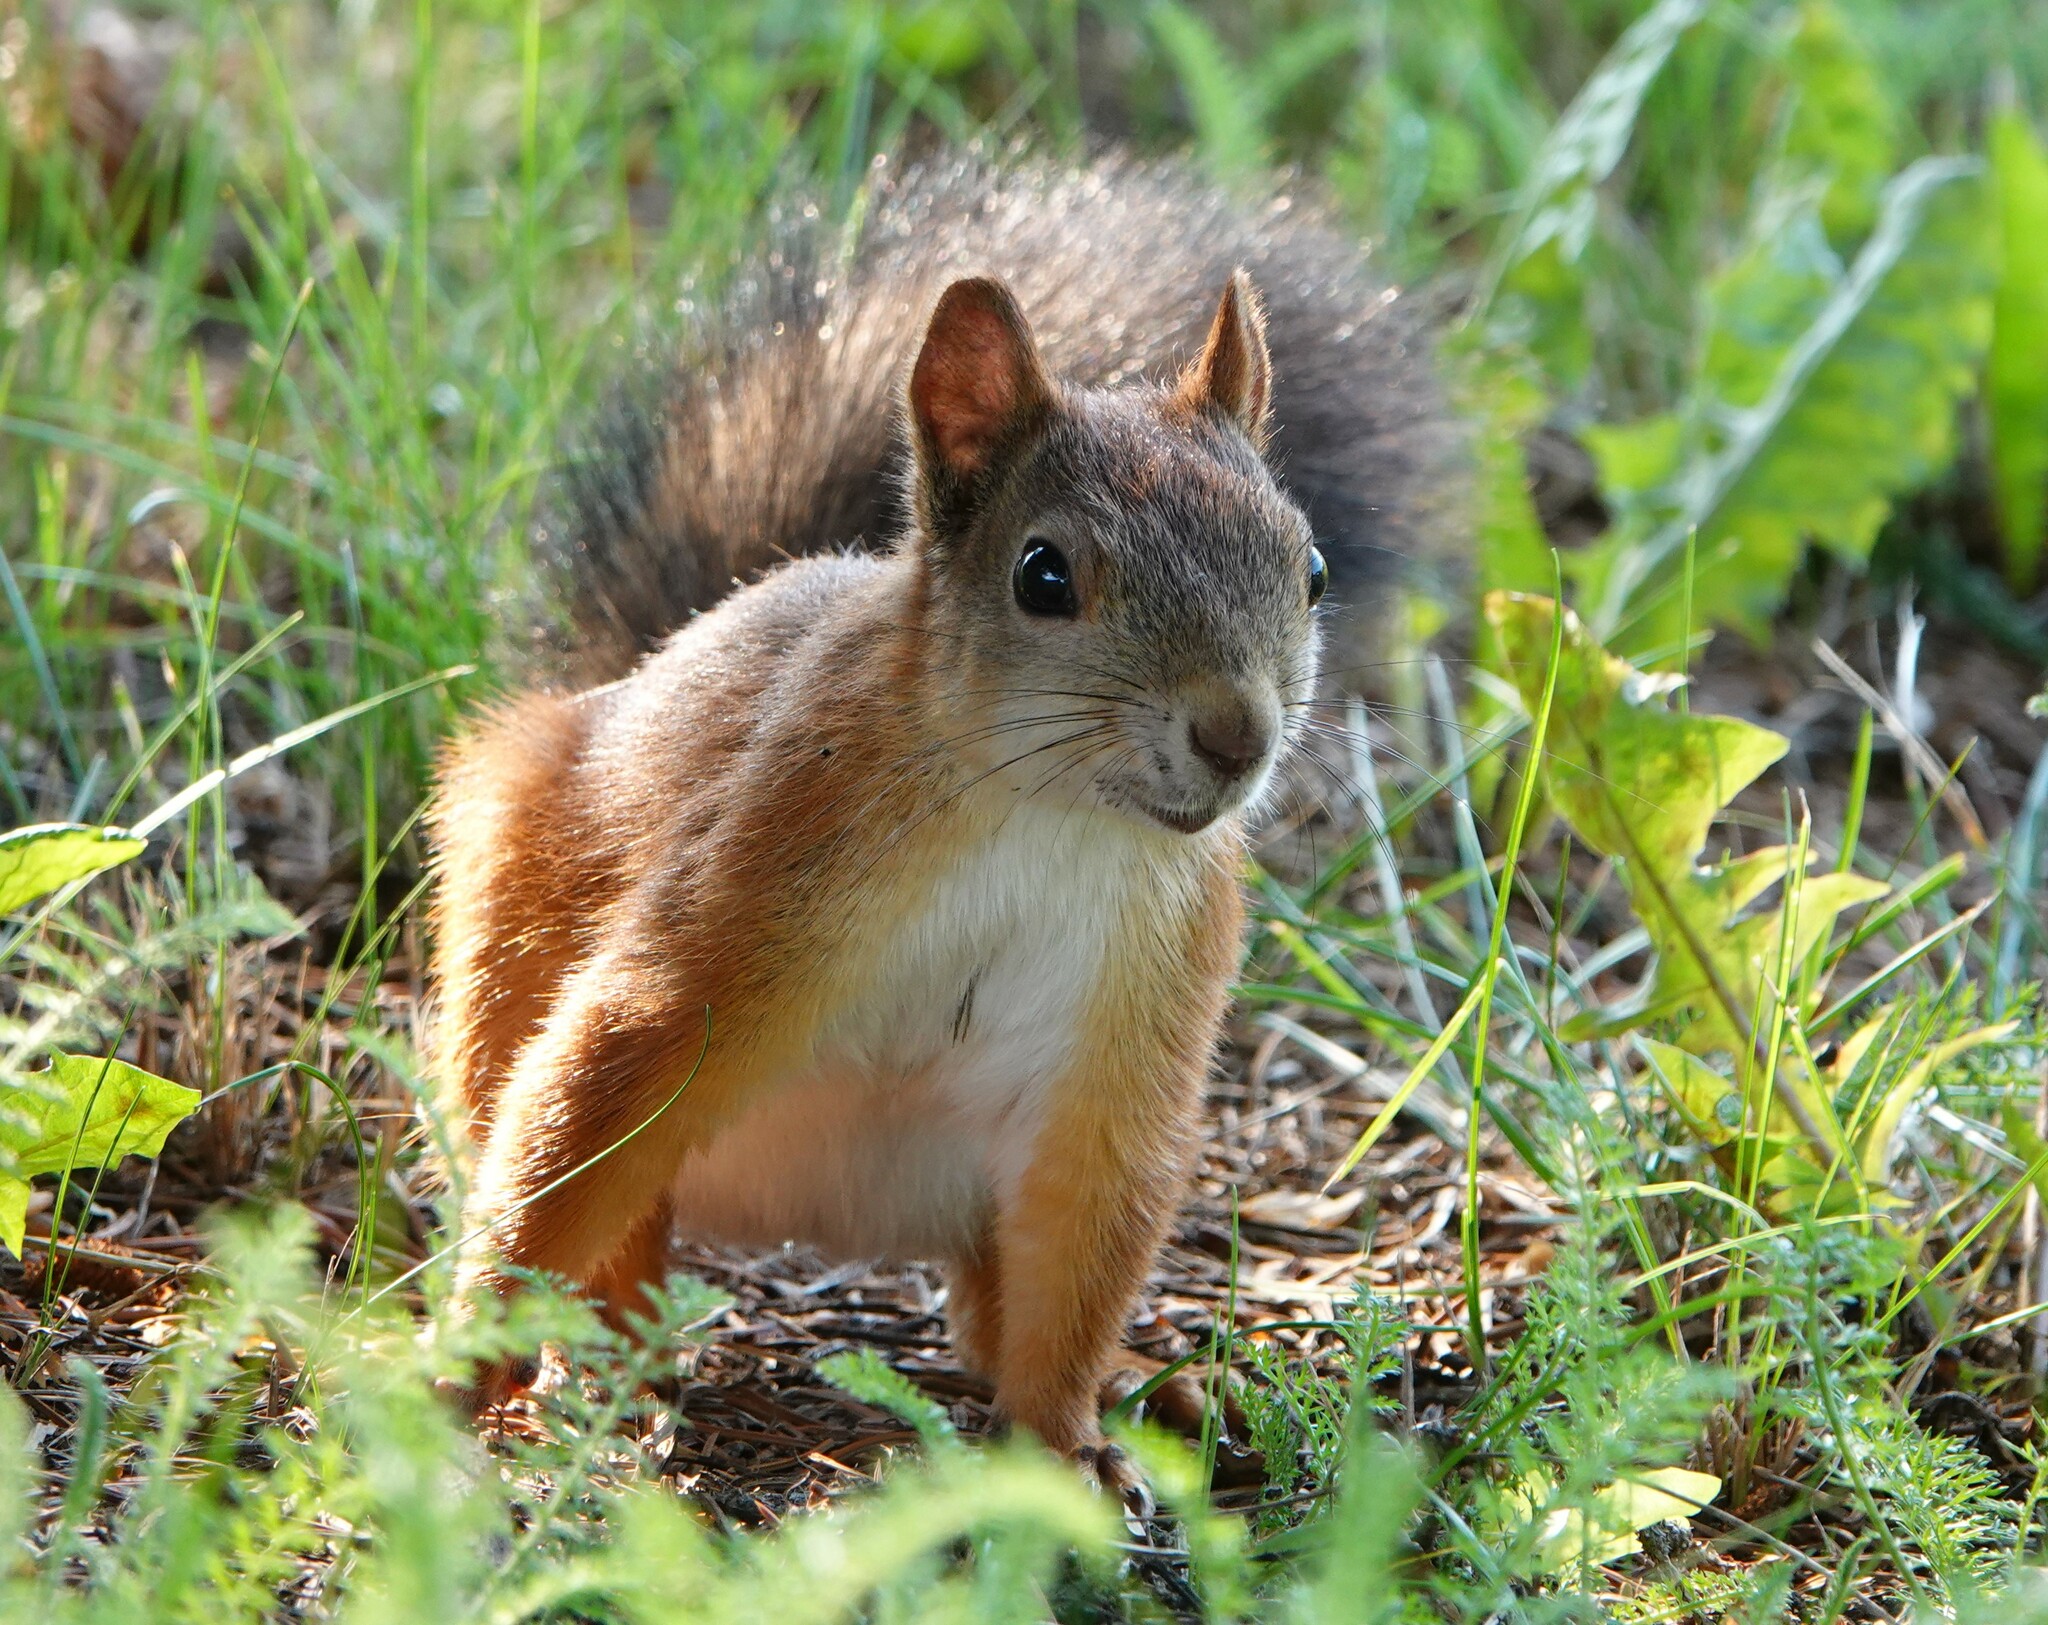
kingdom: Animalia
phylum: Chordata
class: Mammalia
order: Rodentia
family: Sciuridae
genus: Sciurus
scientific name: Sciurus vulgaris
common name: Eurasian red squirrel
